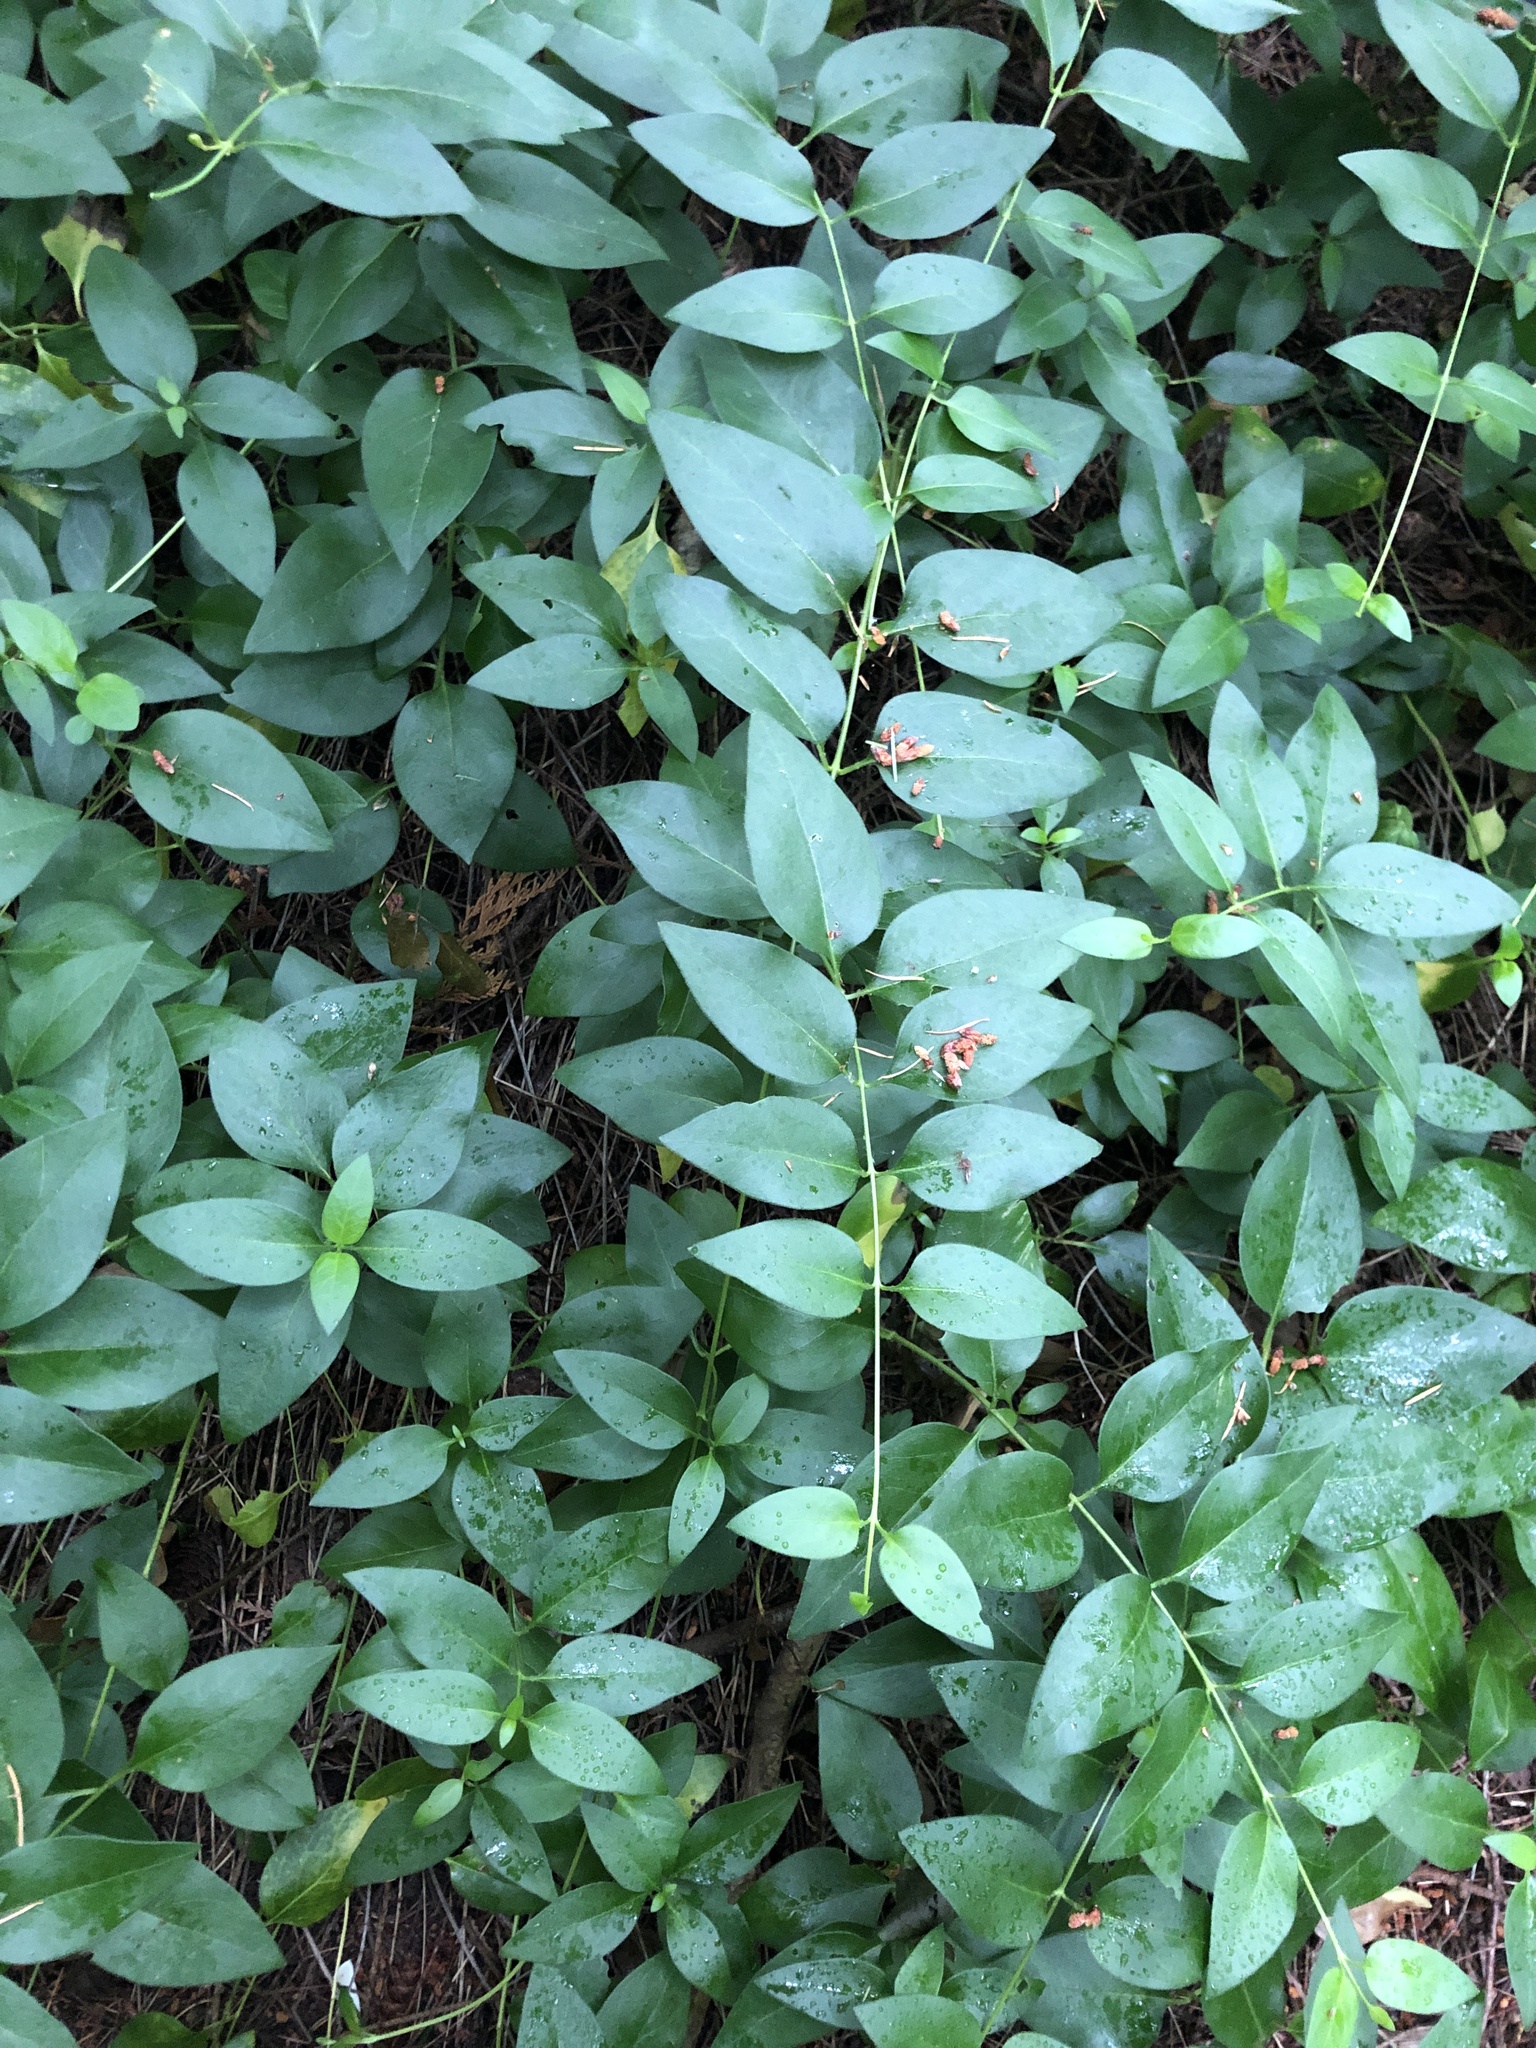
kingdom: Plantae
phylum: Tracheophyta
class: Magnoliopsida
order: Gentianales
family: Apocynaceae
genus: Vinca
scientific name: Vinca major
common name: Greater periwinkle
